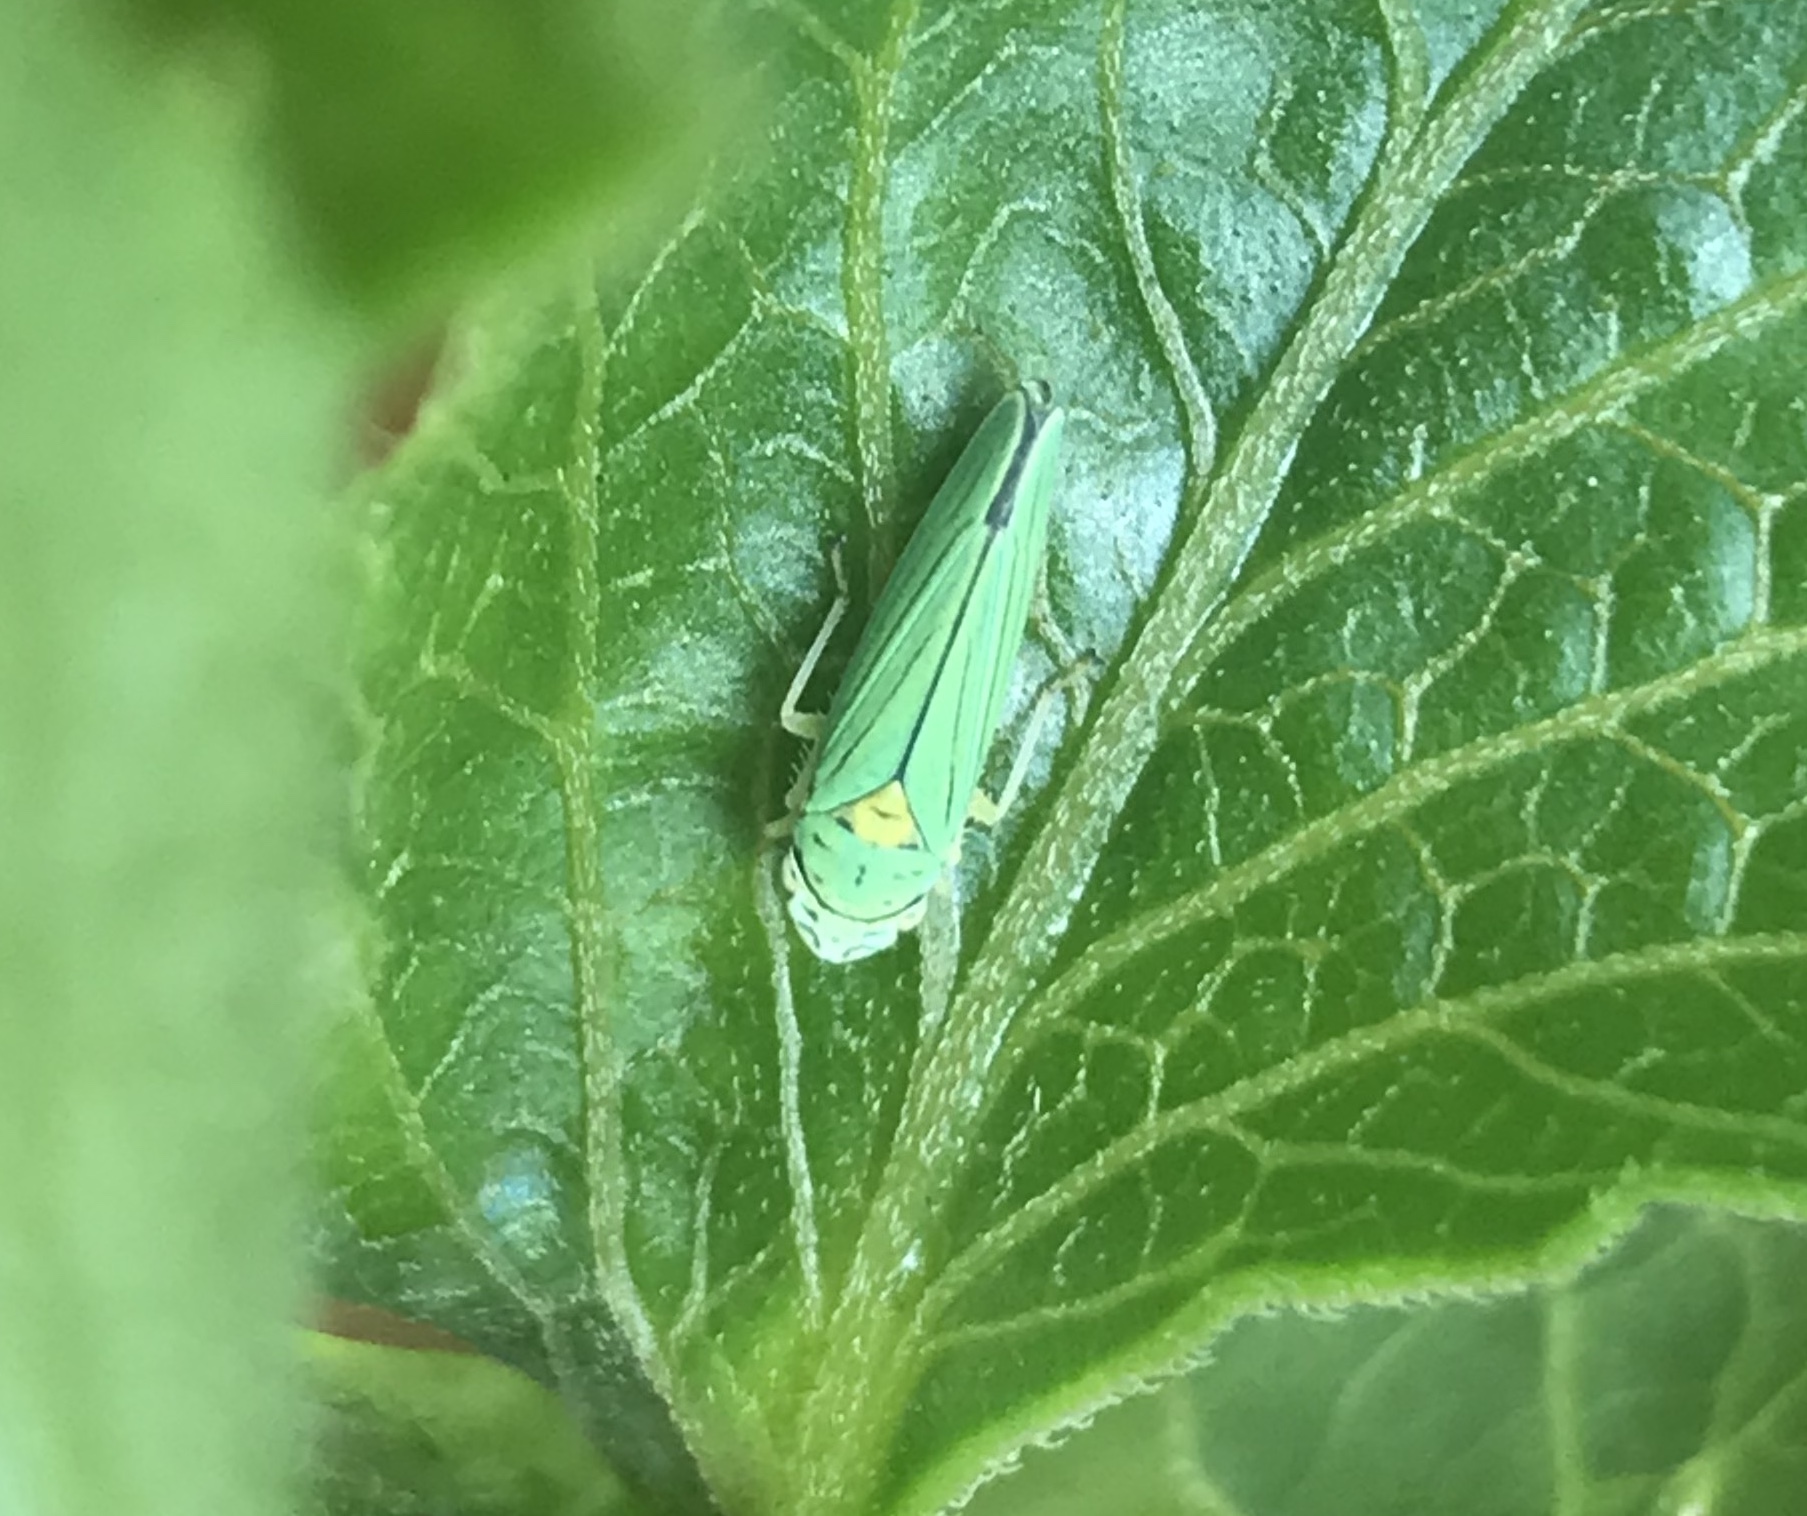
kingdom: Animalia
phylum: Arthropoda
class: Insecta
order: Hemiptera
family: Cicadellidae
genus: Graphocephala
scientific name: Graphocephala atropunctata
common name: Blue-green sharpshooter
